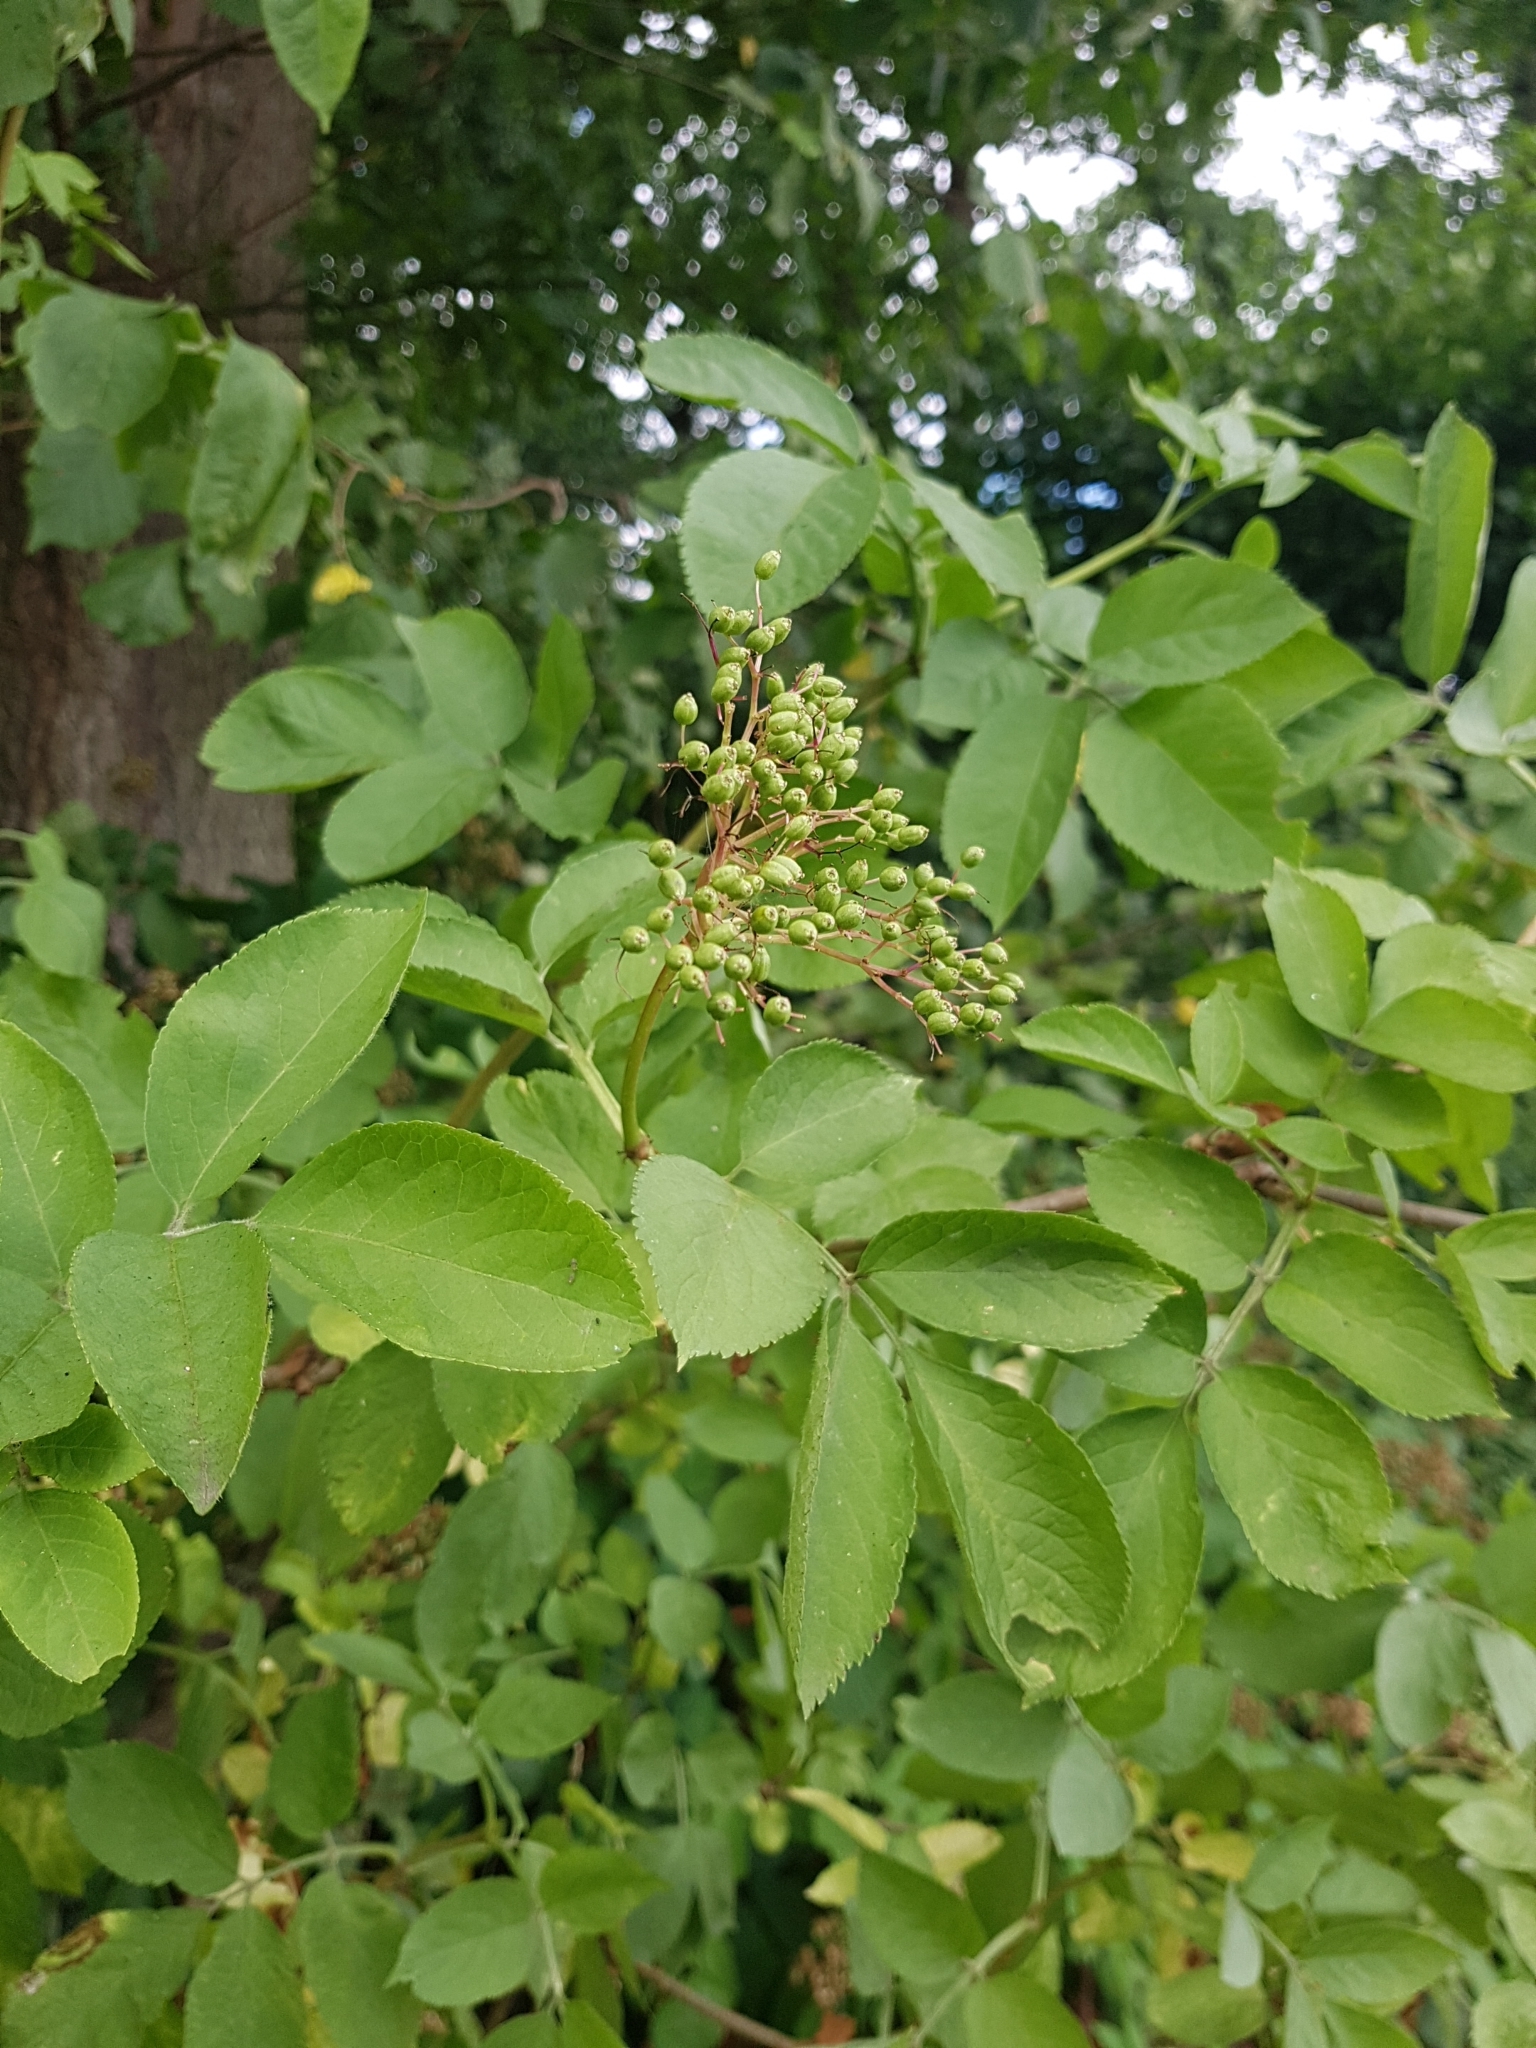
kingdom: Plantae
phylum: Tracheophyta
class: Magnoliopsida
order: Dipsacales
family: Viburnaceae
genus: Sambucus
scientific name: Sambucus nigra
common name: Elder
